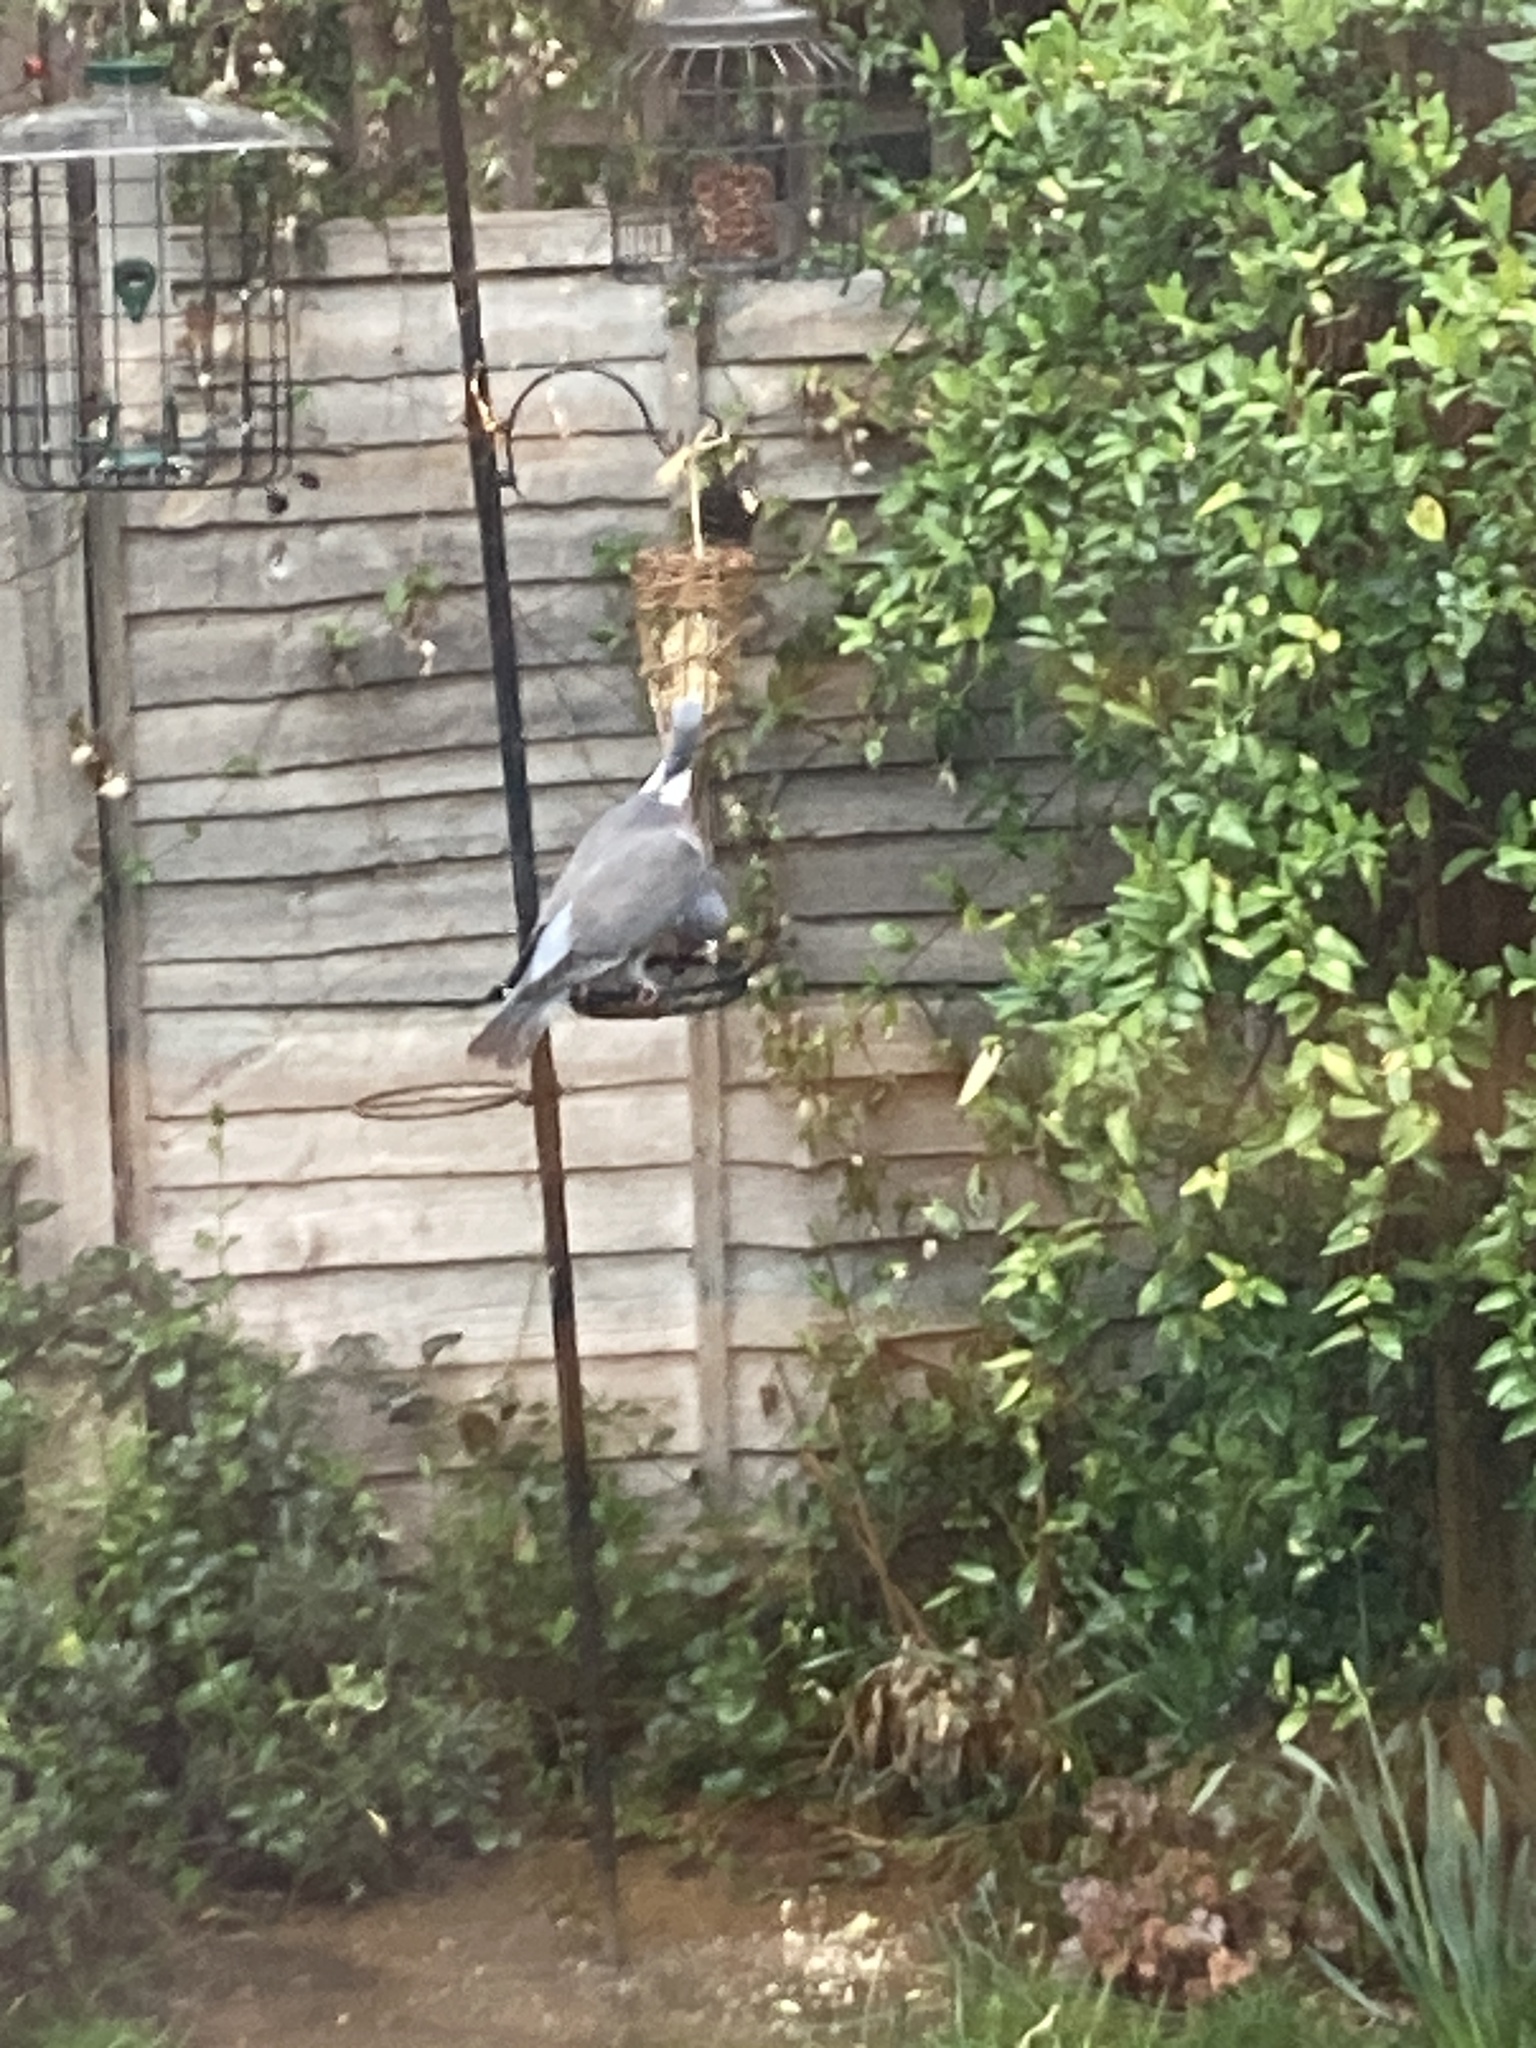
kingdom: Animalia
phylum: Chordata
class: Aves
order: Columbiformes
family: Columbidae
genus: Columba
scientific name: Columba palumbus
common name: Common wood pigeon
